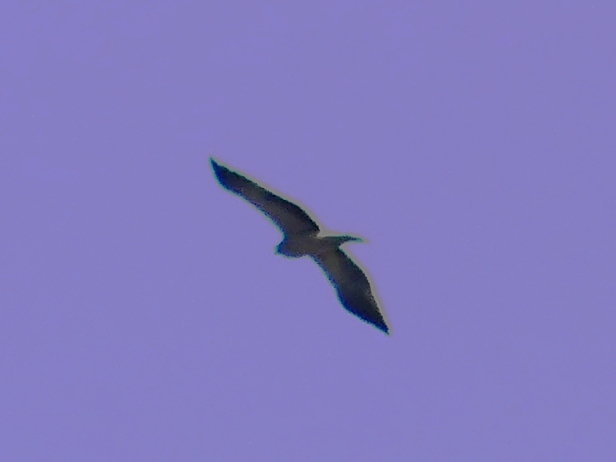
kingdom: Animalia
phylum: Chordata
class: Aves
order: Accipitriformes
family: Accipitridae
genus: Hieraaetus
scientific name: Hieraaetus pennatus
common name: Booted eagle
